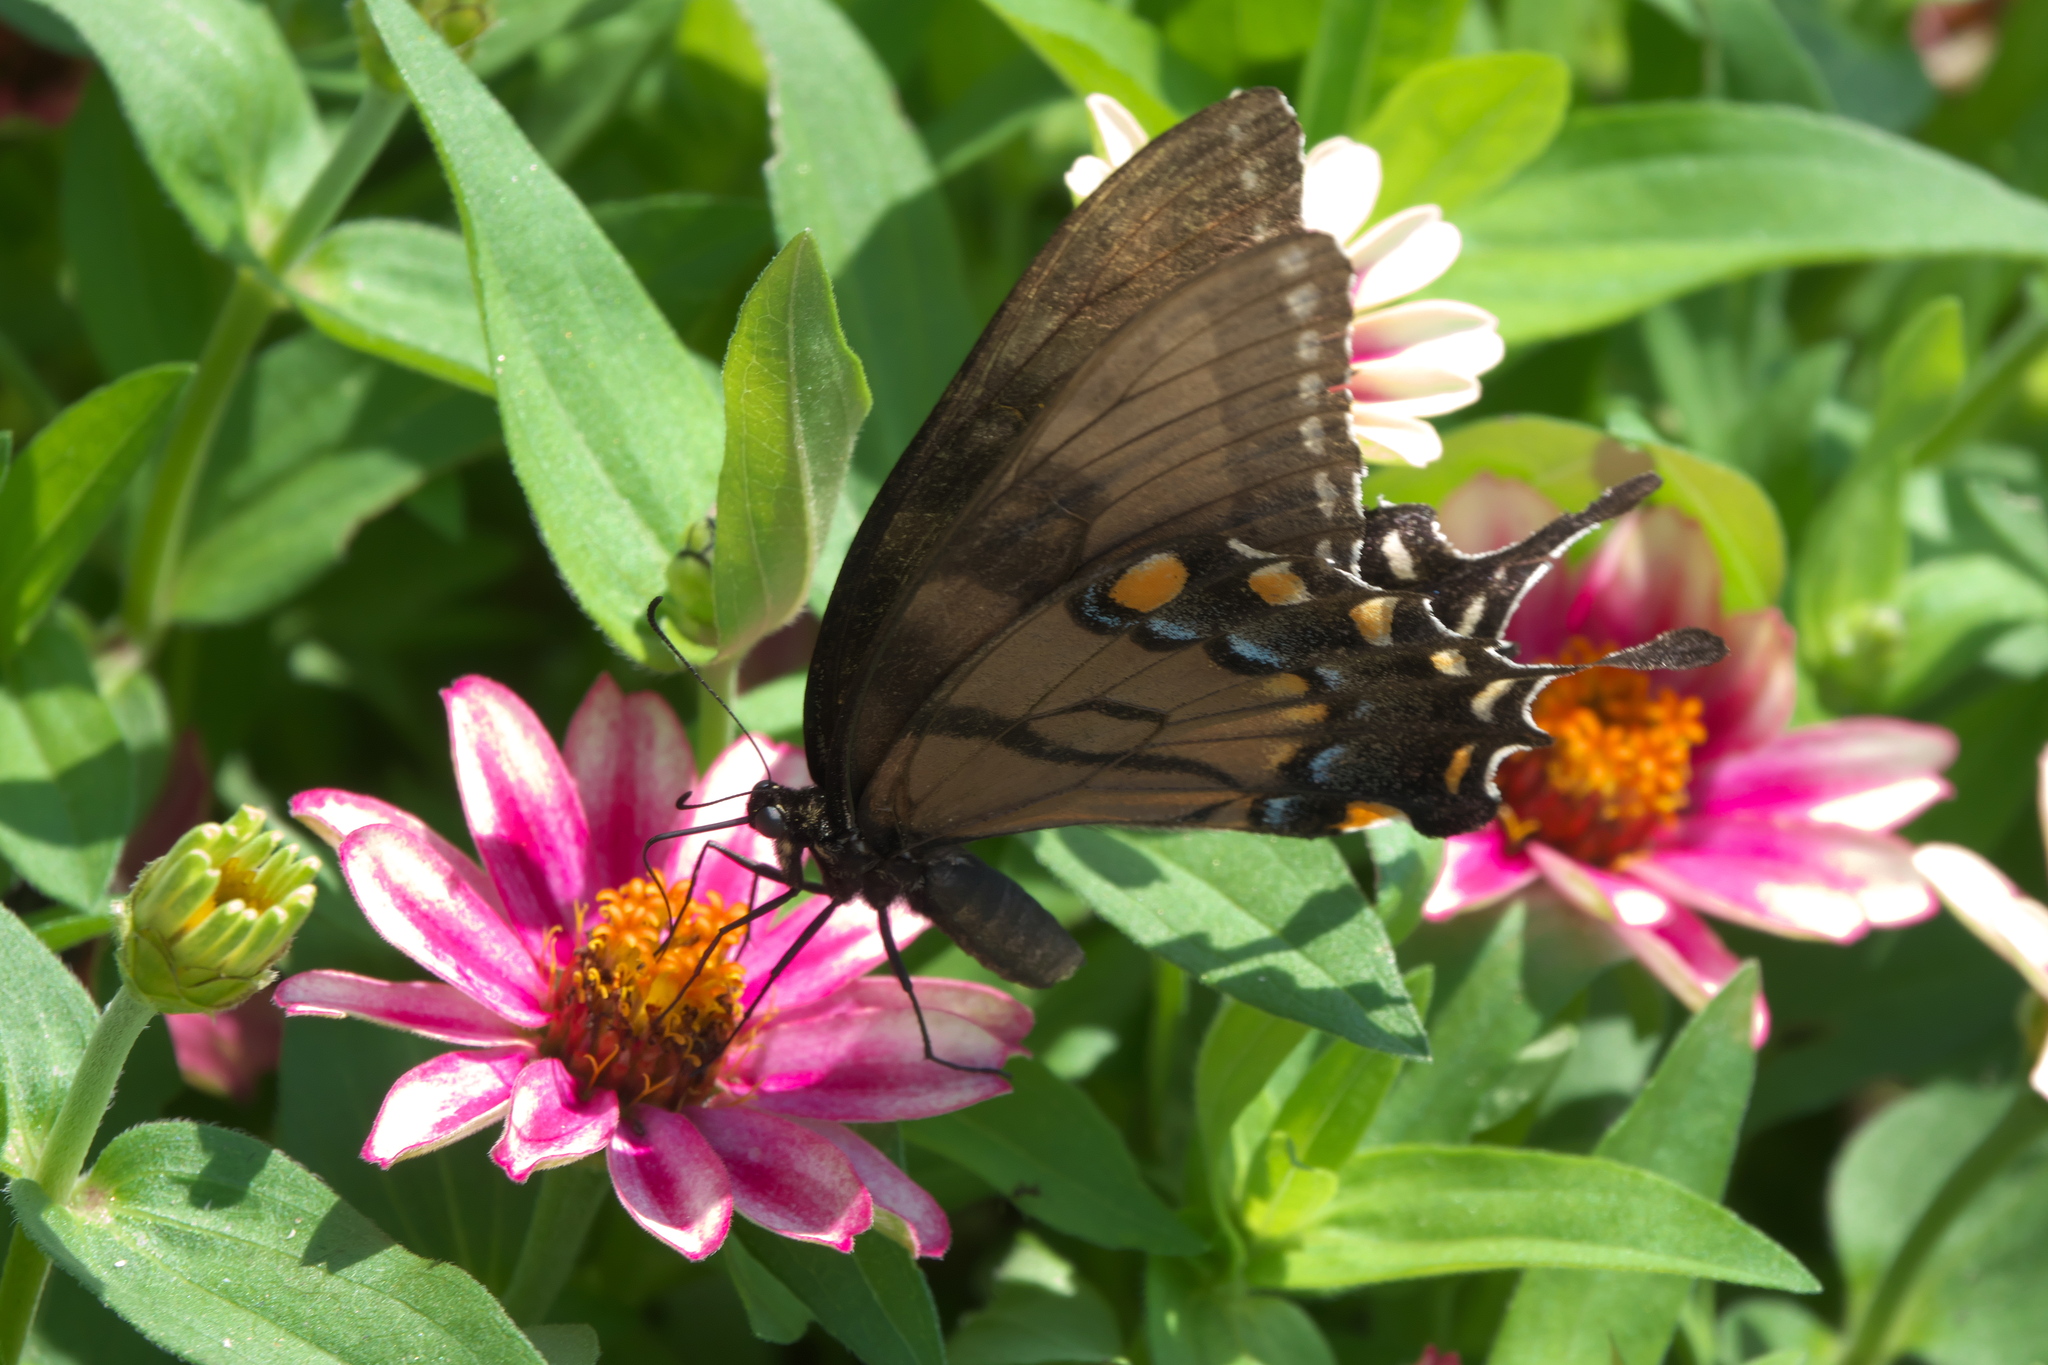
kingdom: Animalia
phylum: Arthropoda
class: Insecta
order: Lepidoptera
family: Papilionidae
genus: Papilio
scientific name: Papilio glaucus
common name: Tiger swallowtail
